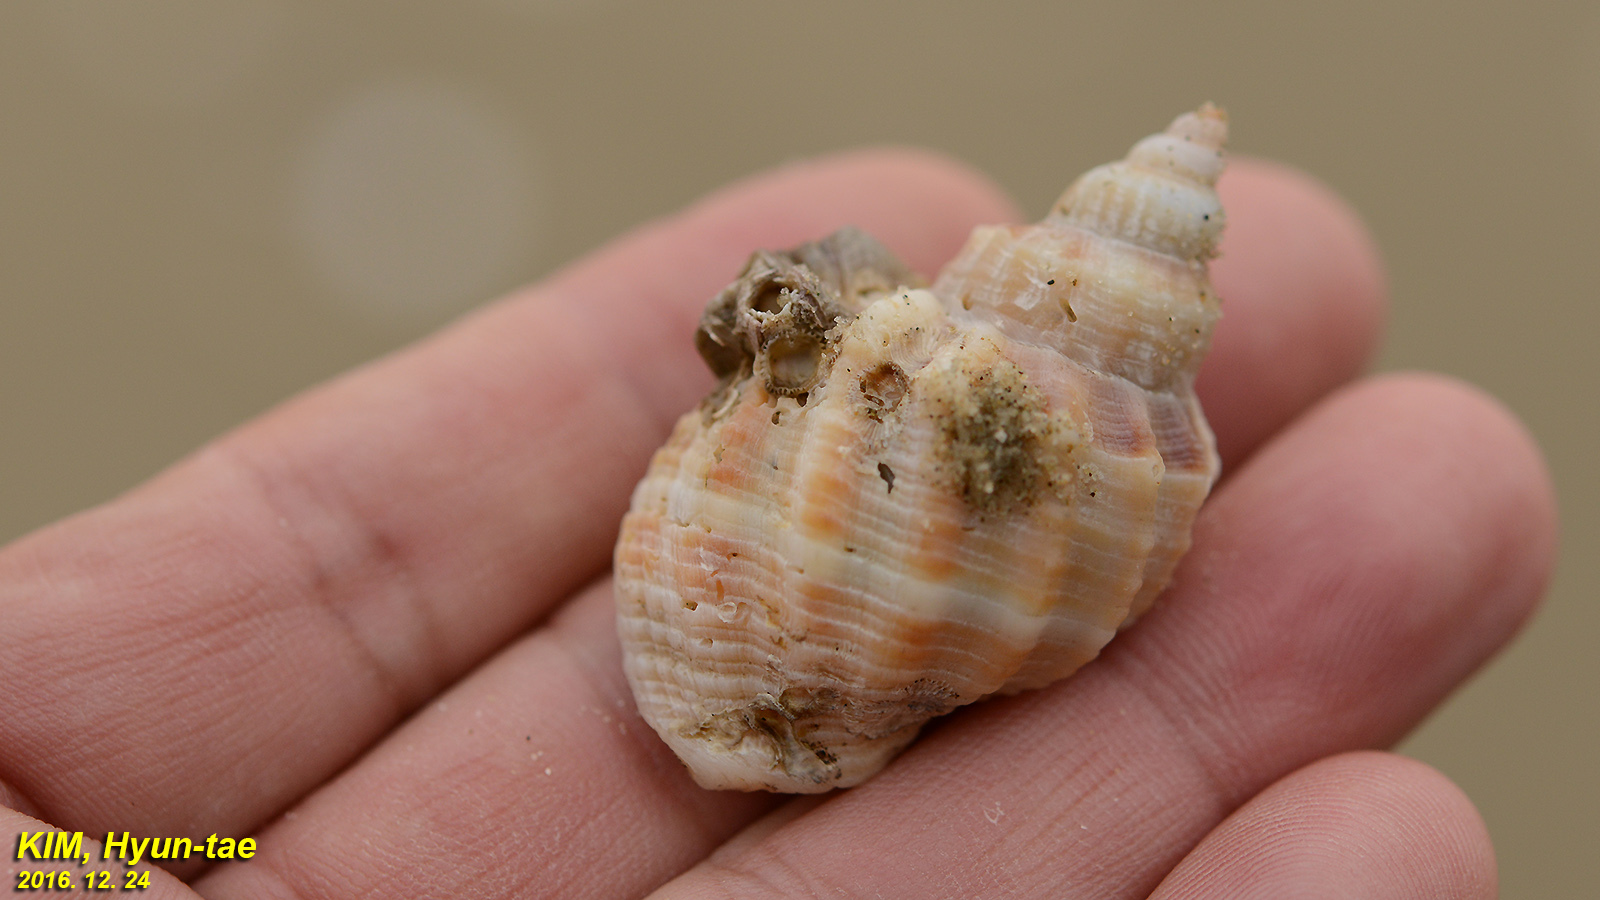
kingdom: Animalia
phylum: Mollusca
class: Gastropoda
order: Neogastropoda
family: Cancellariidae
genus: Sydaphera
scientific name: Sydaphera spengleriana
